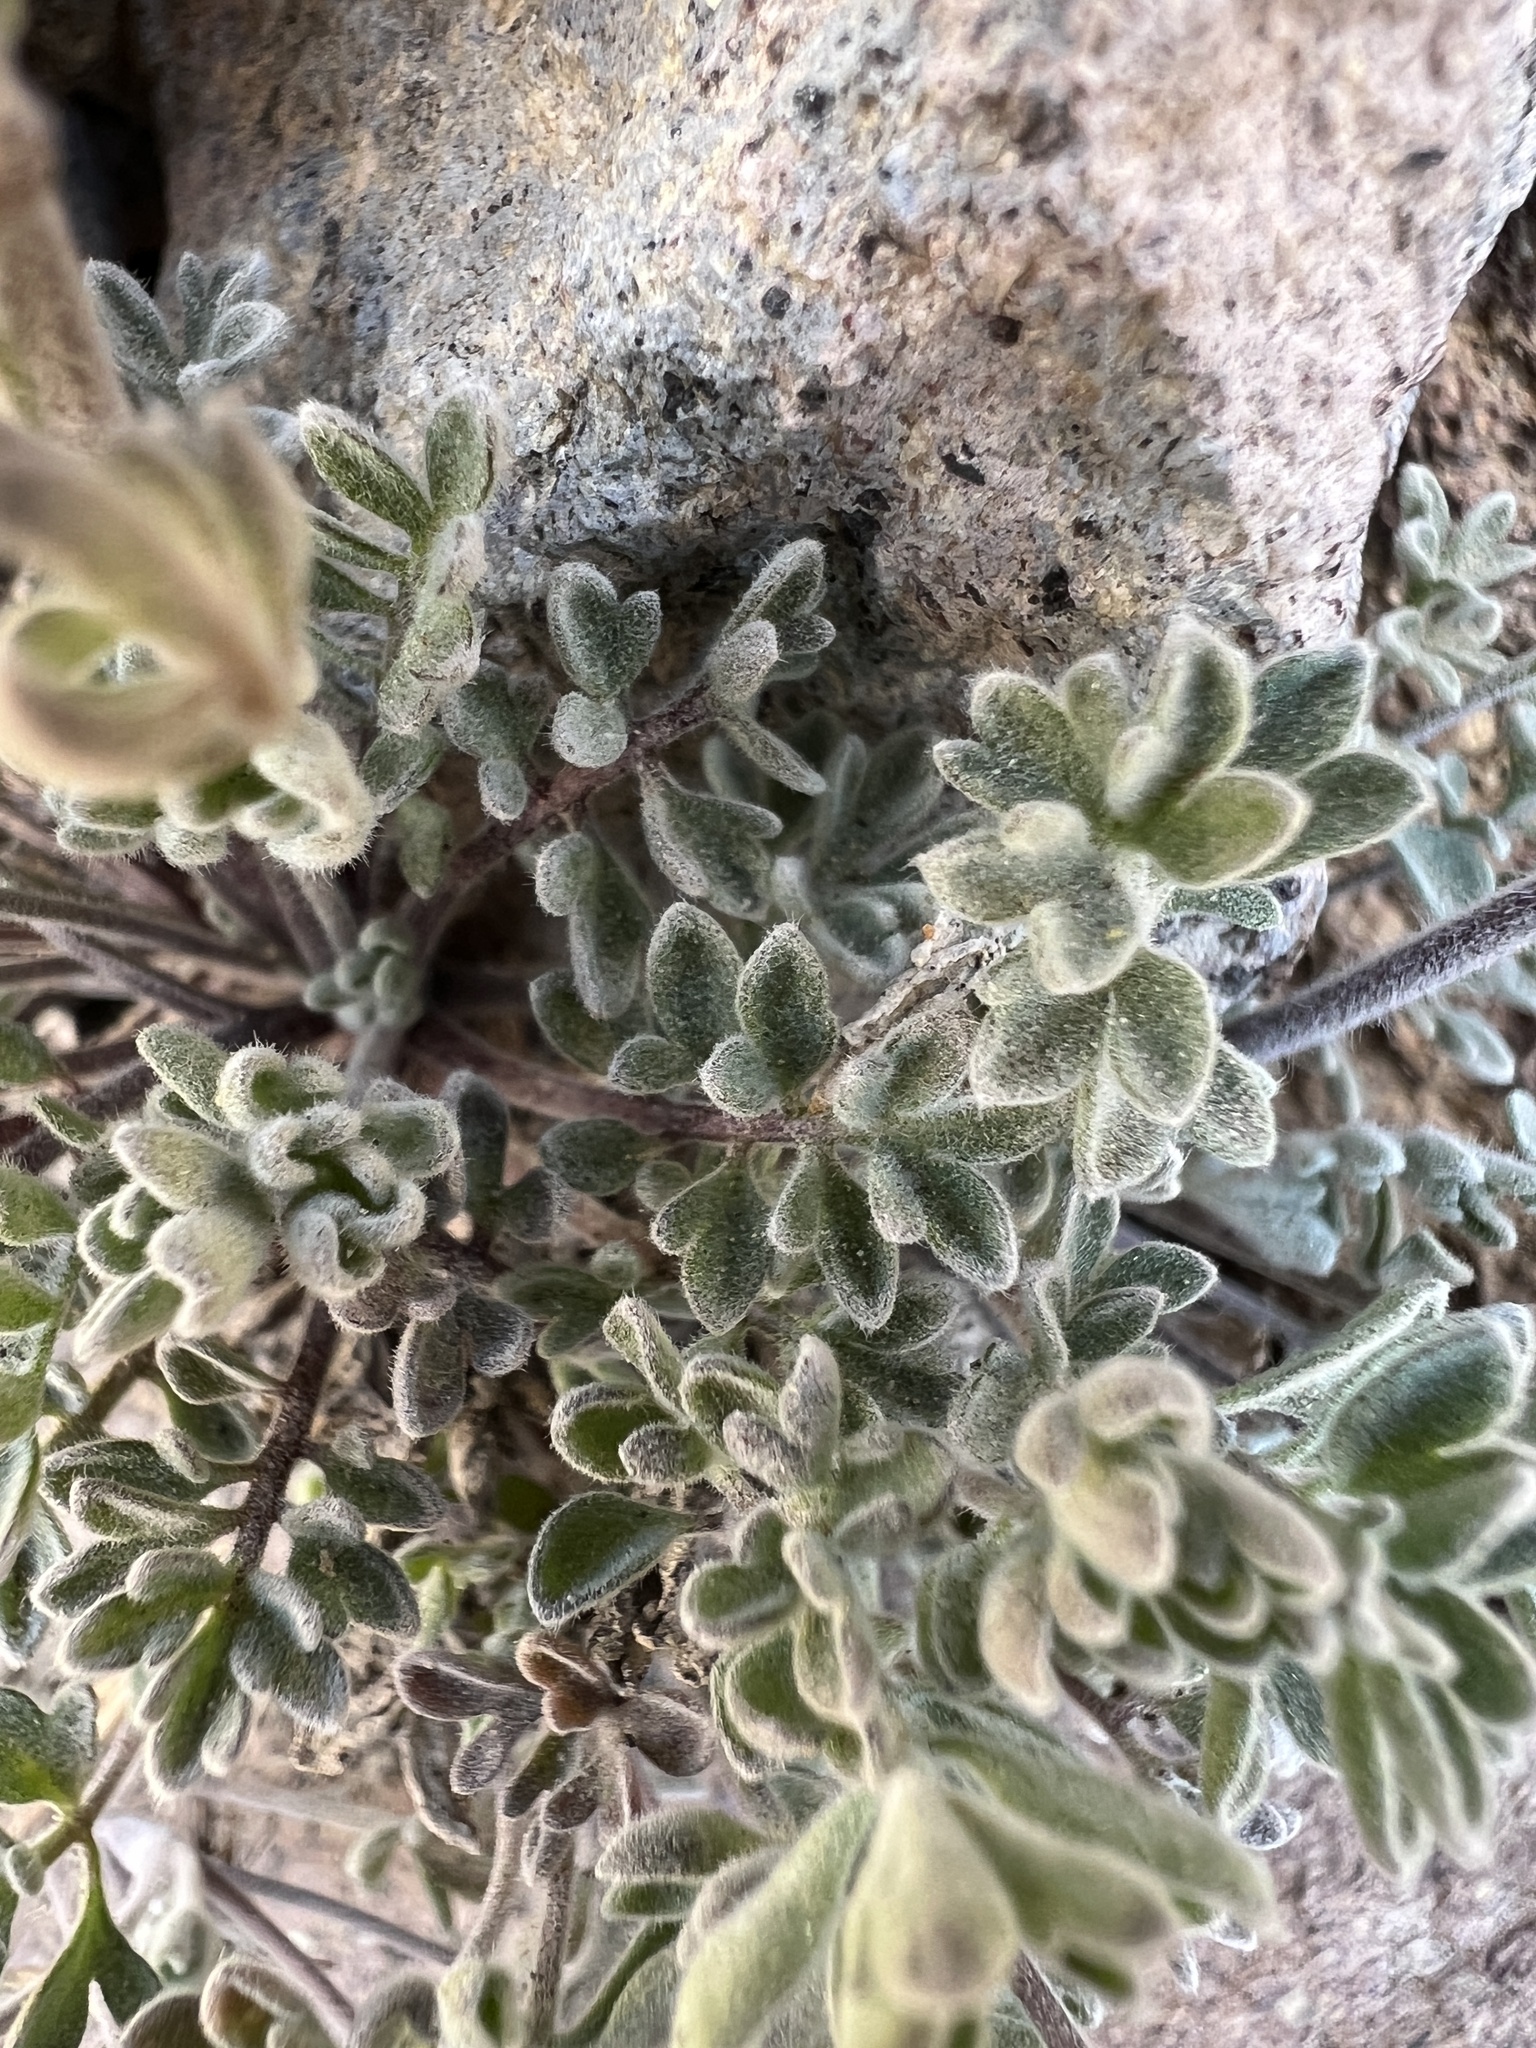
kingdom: Plantae
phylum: Tracheophyta
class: Magnoliopsida
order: Brassicales
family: Brassicaceae
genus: Smelowskia
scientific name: Smelowskia americana
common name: American false candytuft
